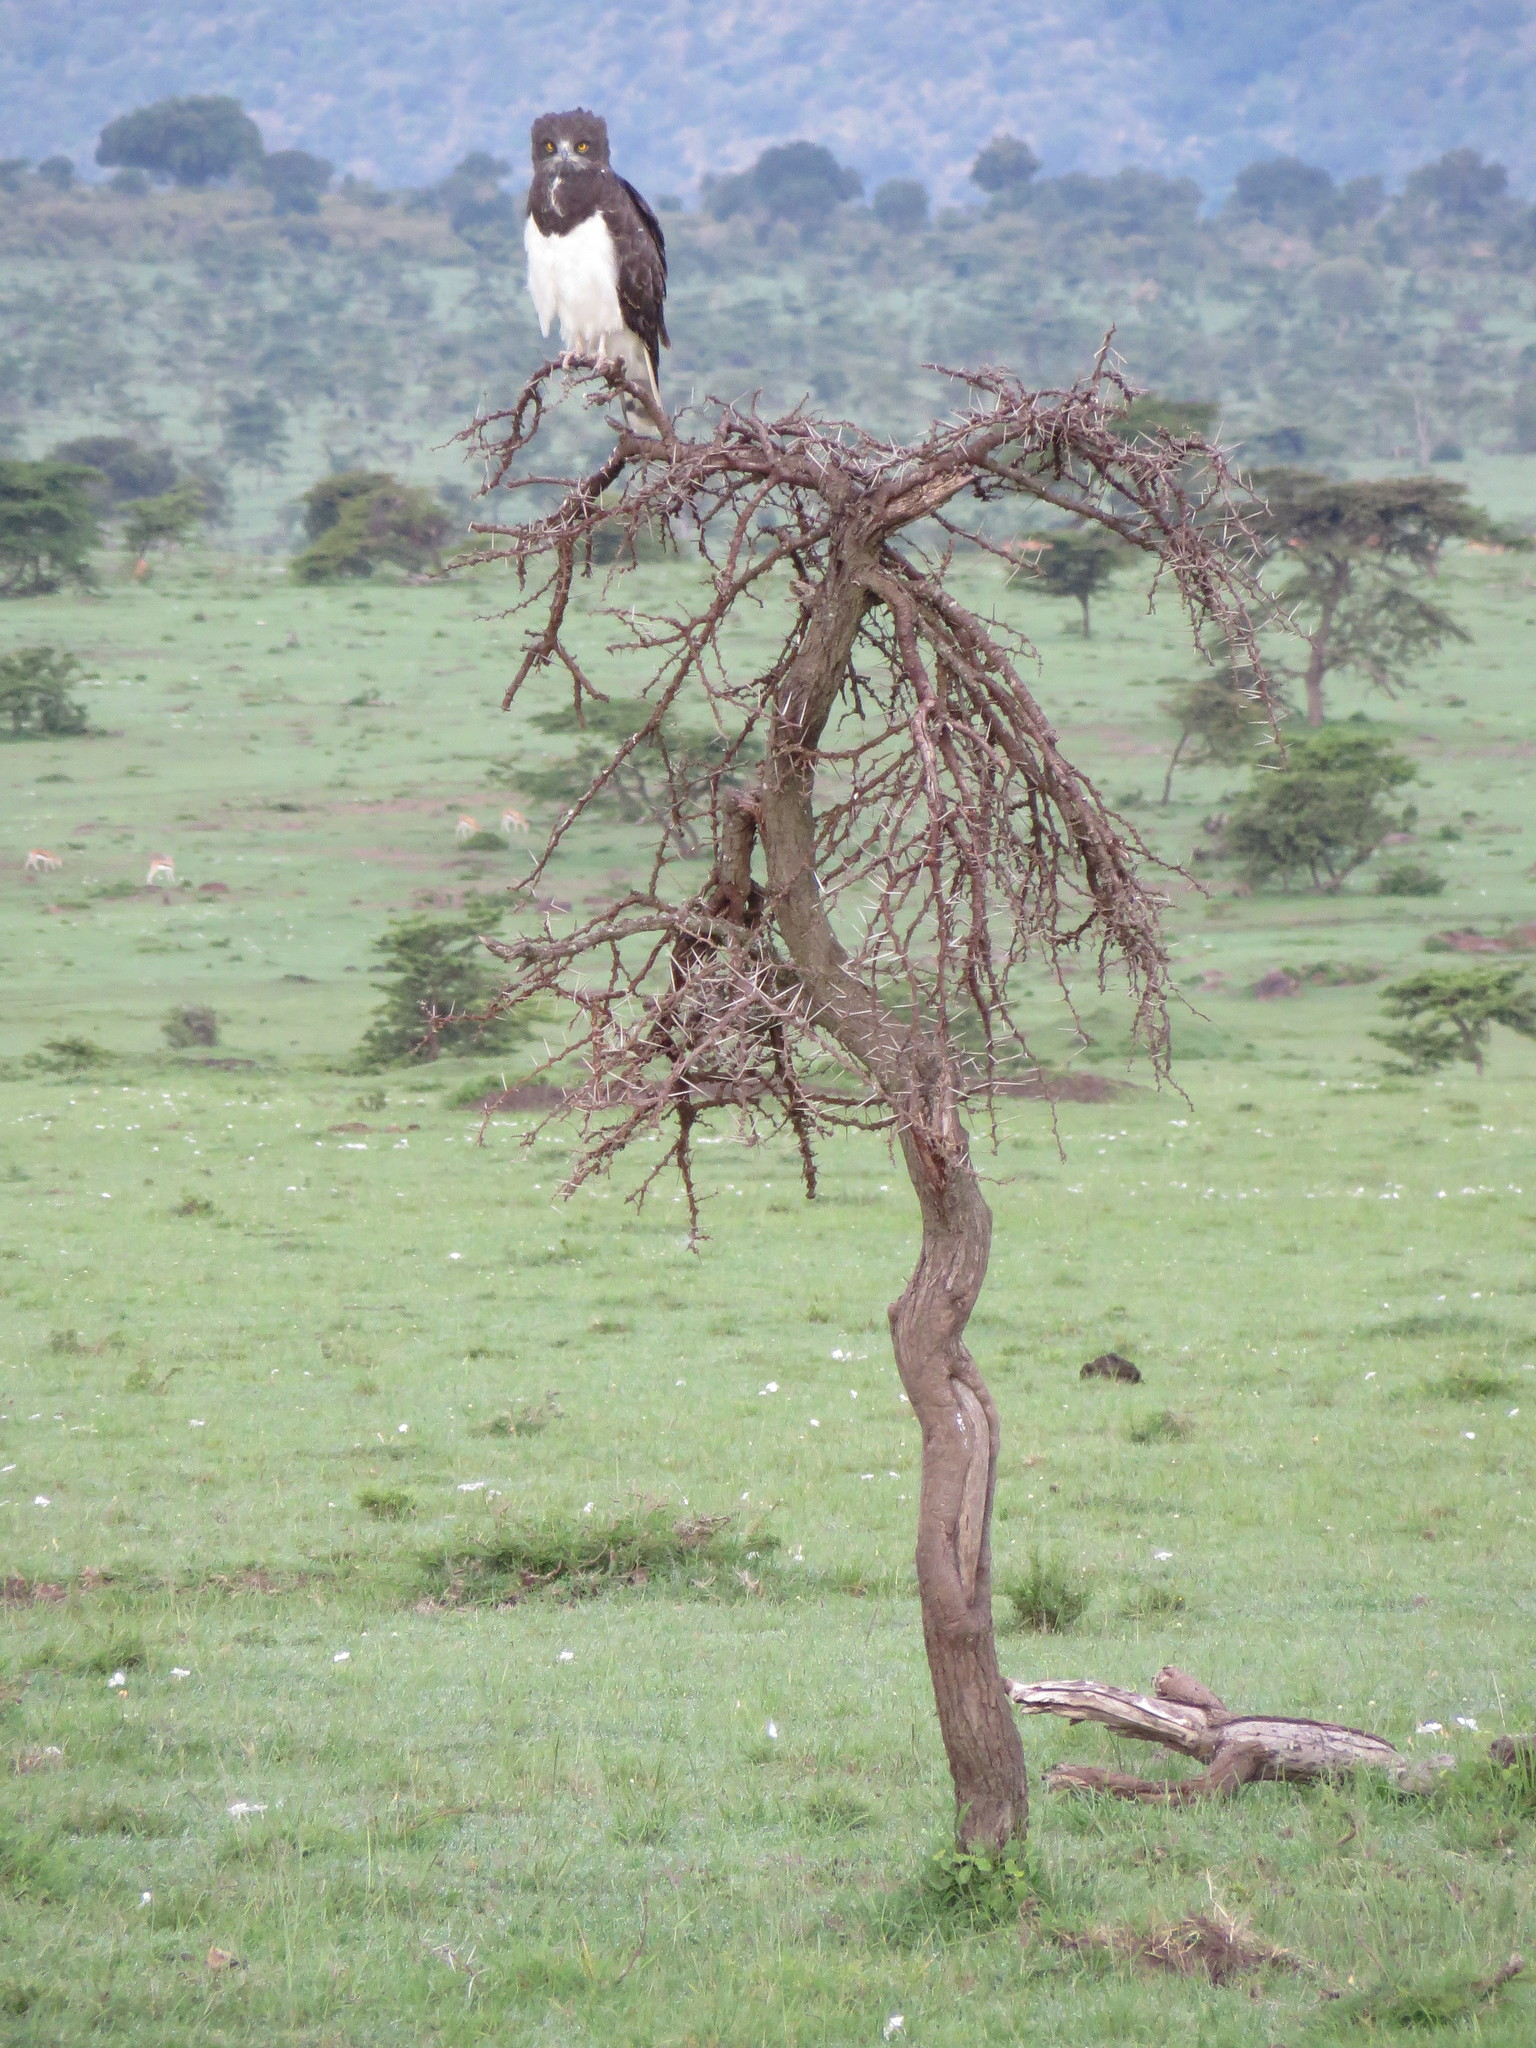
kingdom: Animalia
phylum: Chordata
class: Aves
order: Accipitriformes
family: Accipitridae
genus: Circaetus
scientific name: Circaetus pectoralis
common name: Black-chested snake eagle
